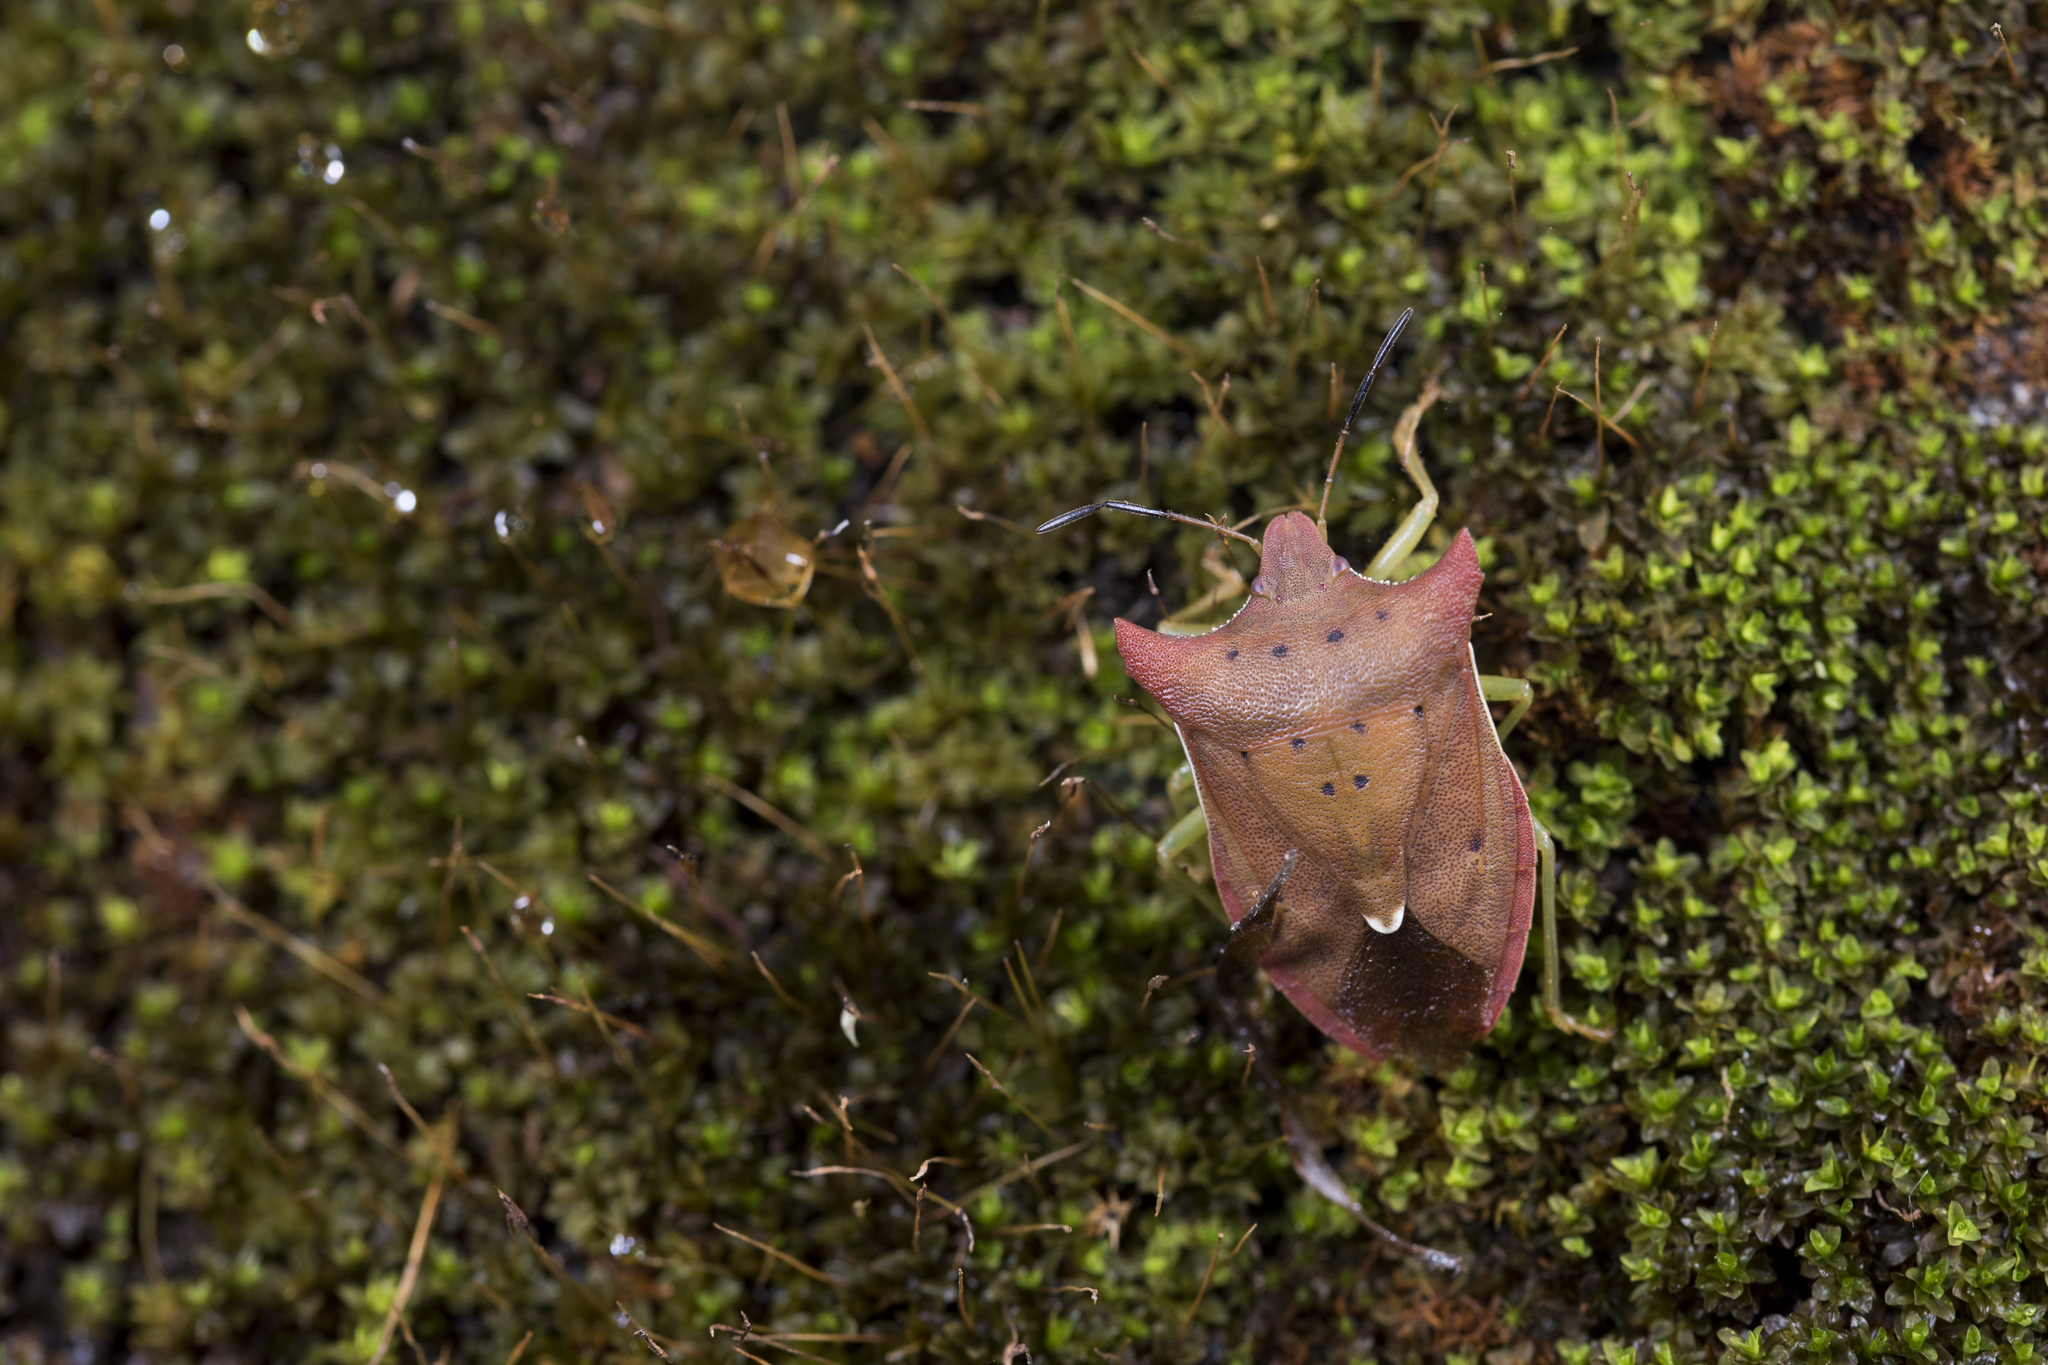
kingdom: Animalia
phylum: Arthropoda
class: Insecta
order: Hemiptera
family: Pentatomidae
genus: Lelia
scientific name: Lelia concavaemargo
